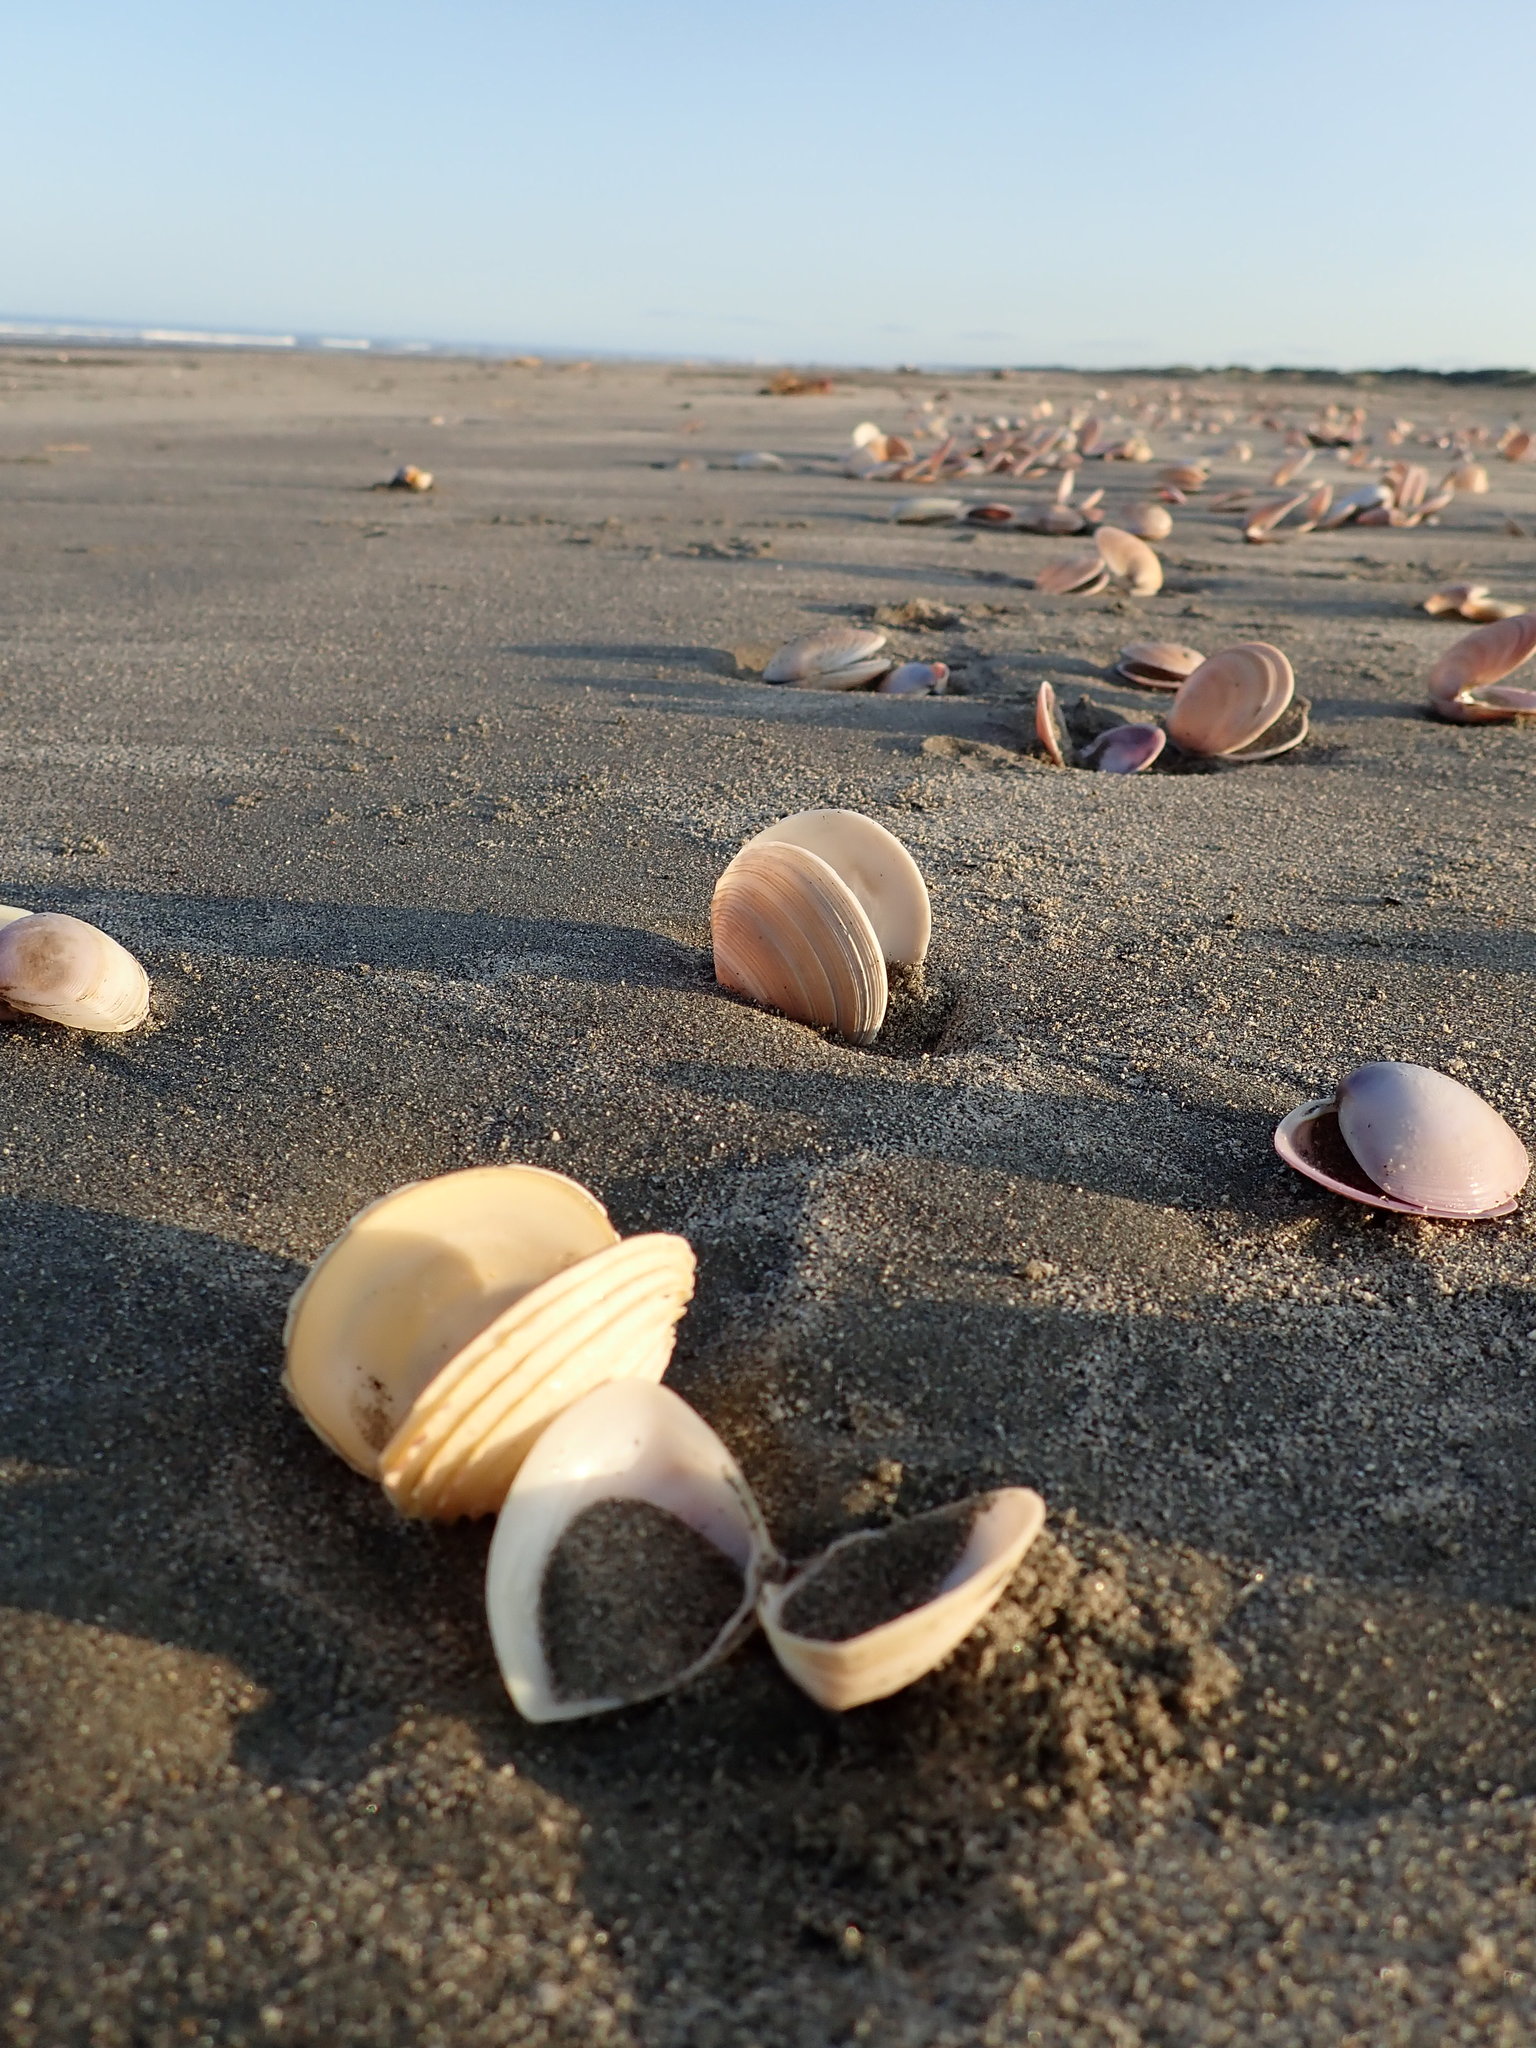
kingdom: Animalia
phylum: Mollusca
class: Bivalvia
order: Venerida
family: Veneridae
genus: Bassina
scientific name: Bassina yatei
